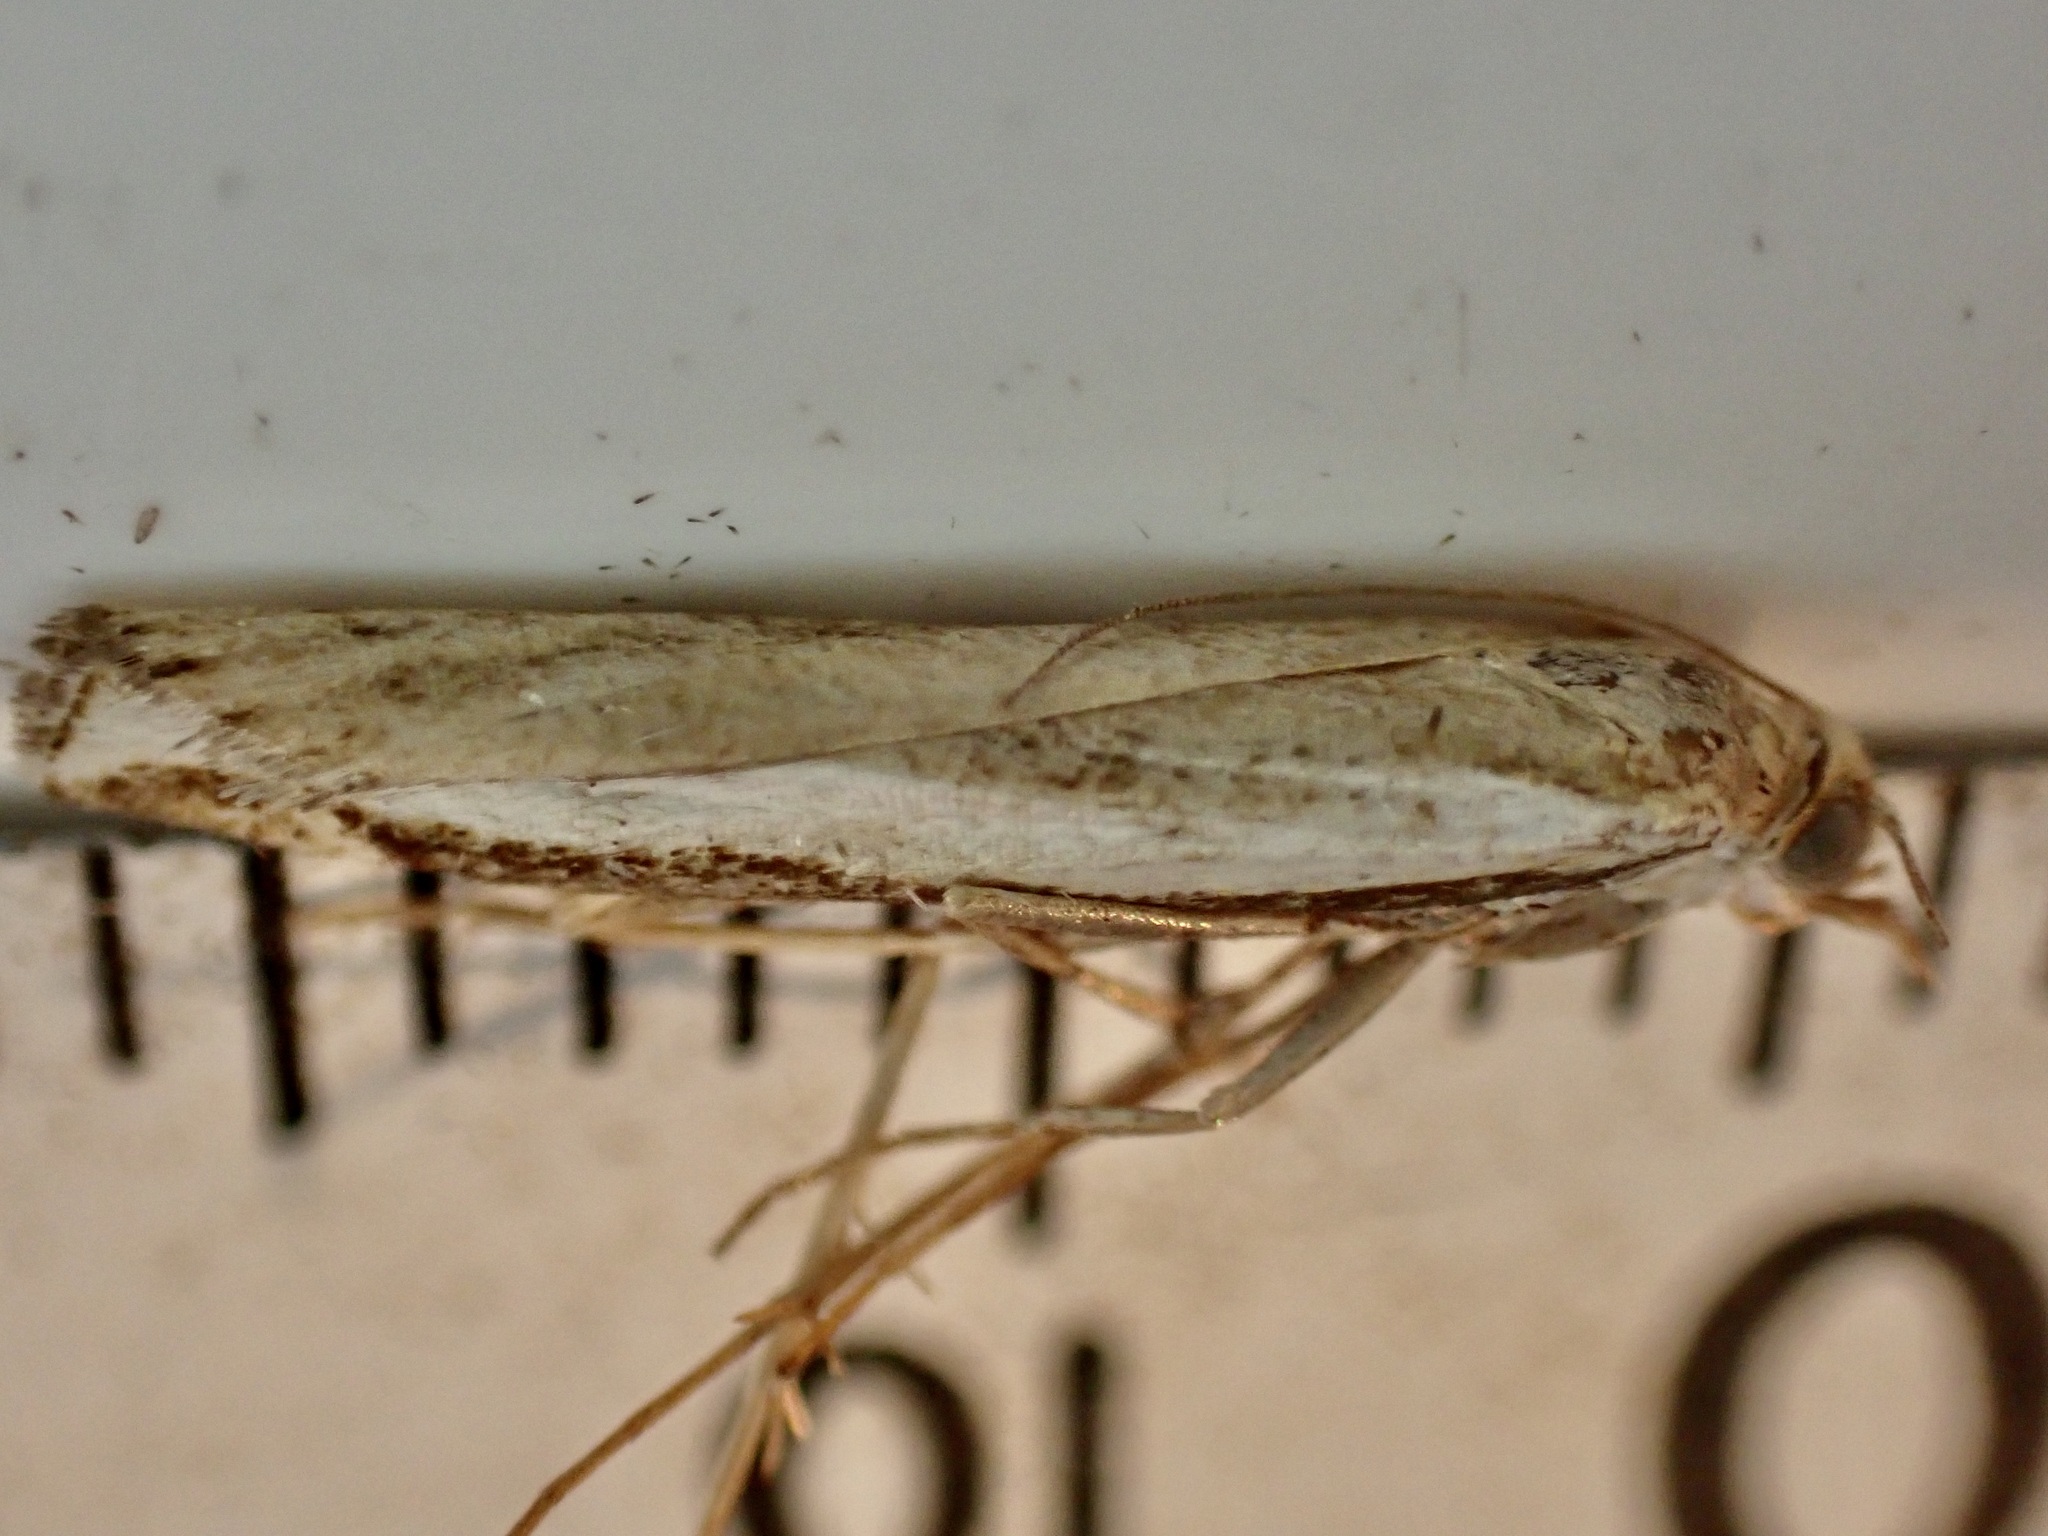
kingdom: Animalia
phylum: Arthropoda
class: Insecta
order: Lepidoptera
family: Crambidae
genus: Orocrambus
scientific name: Orocrambus flexuosellus
